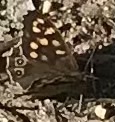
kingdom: Animalia
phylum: Arthropoda
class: Insecta
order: Lepidoptera
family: Nymphalidae
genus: Pararge
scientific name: Pararge aegeria
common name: Speckled wood
